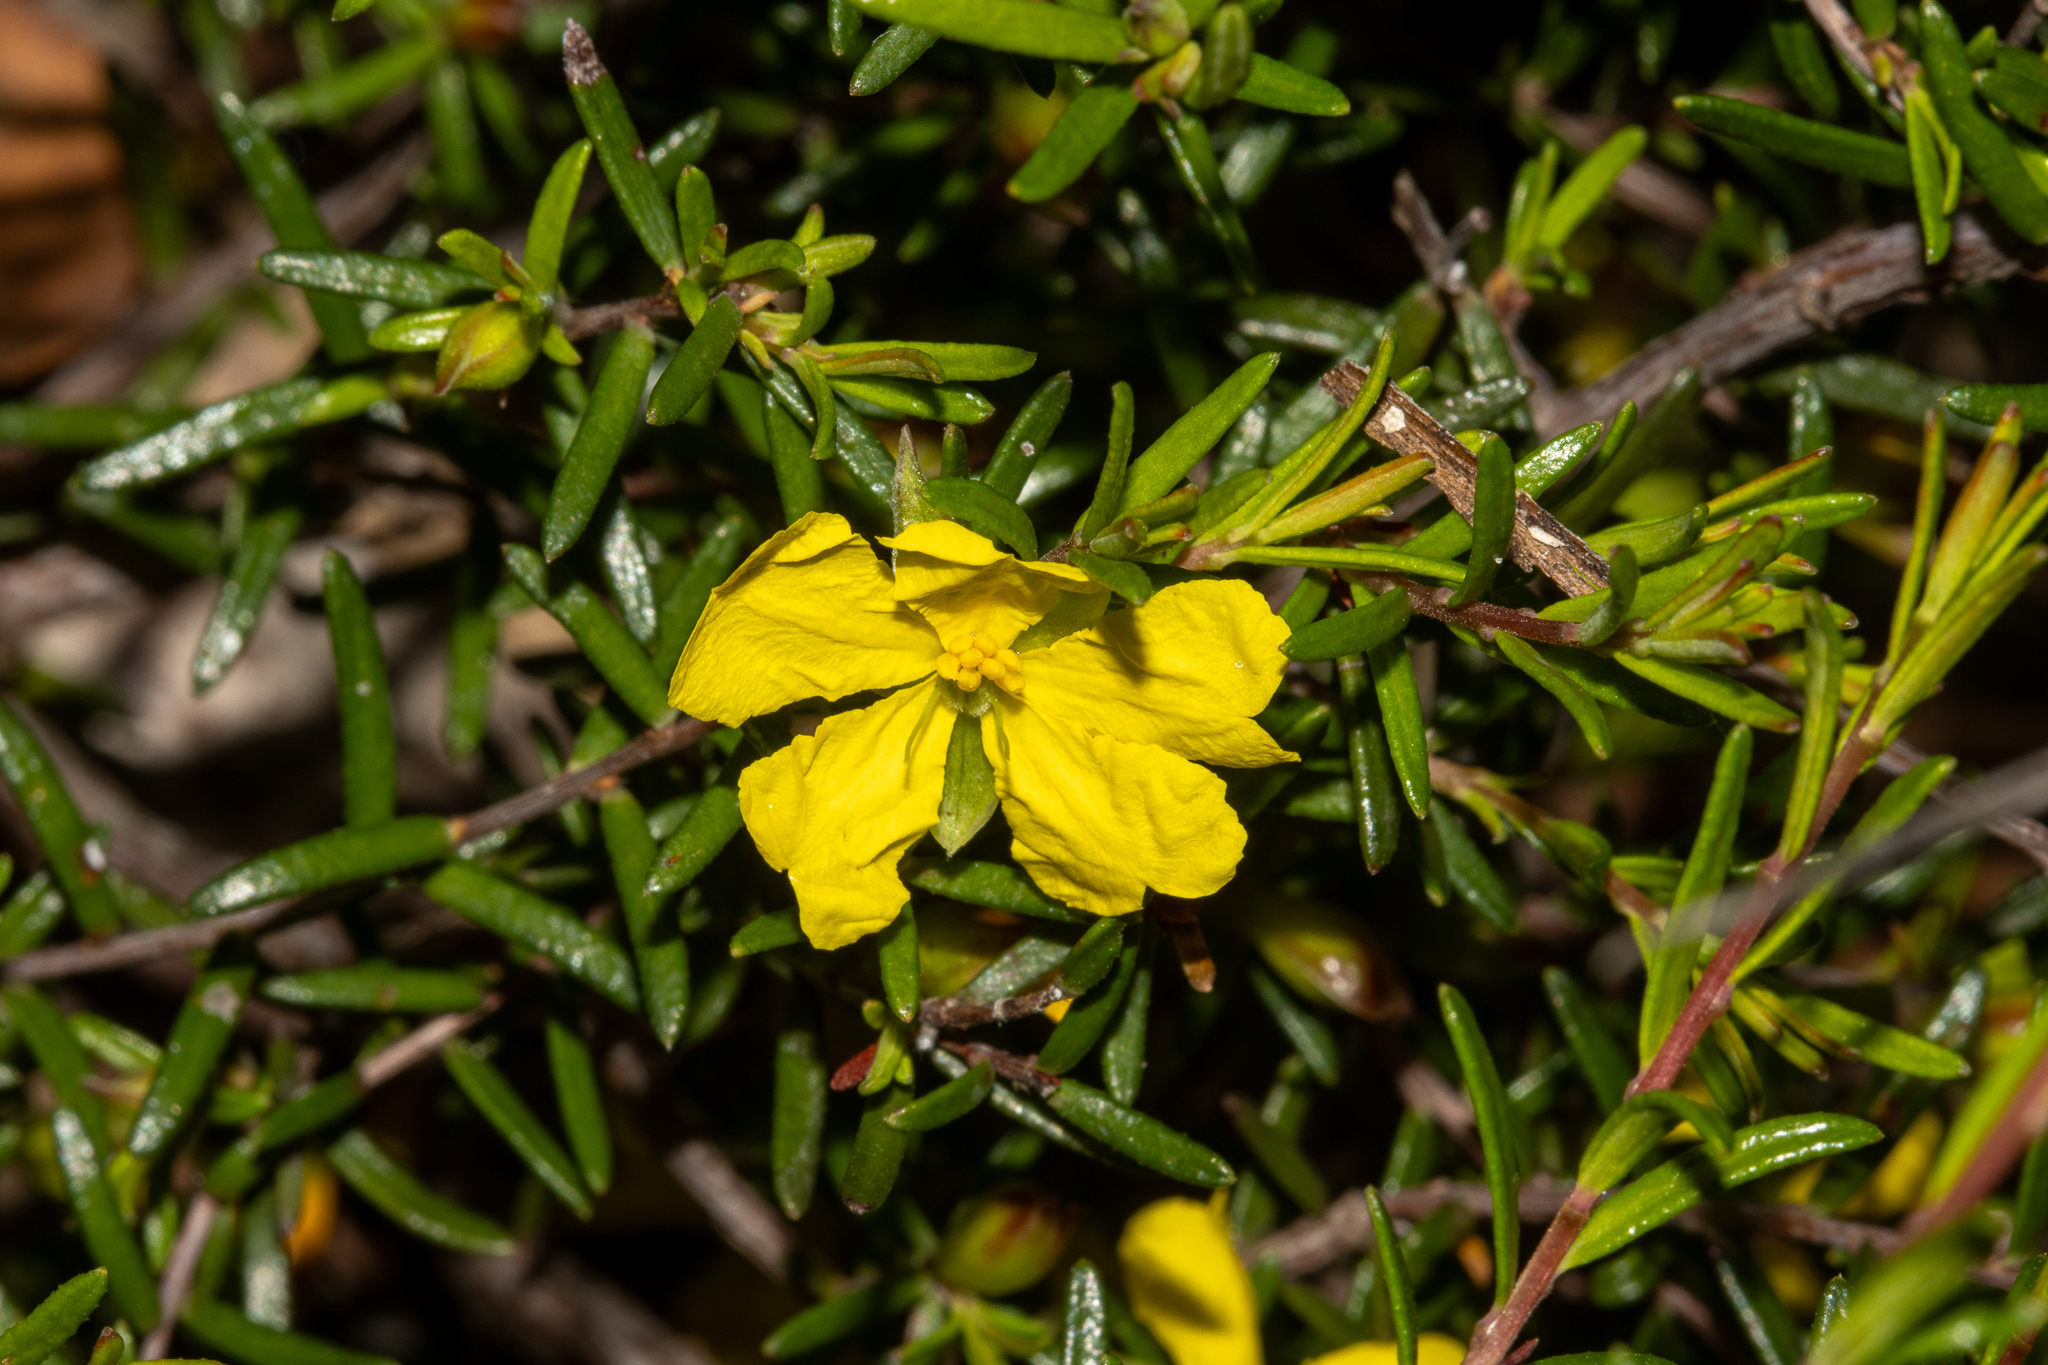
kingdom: Plantae
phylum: Tracheophyta
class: Magnoliopsida
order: Dilleniales
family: Dilleniaceae
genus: Hibbertia
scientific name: Hibbertia riparia
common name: Erect guinea-flower
